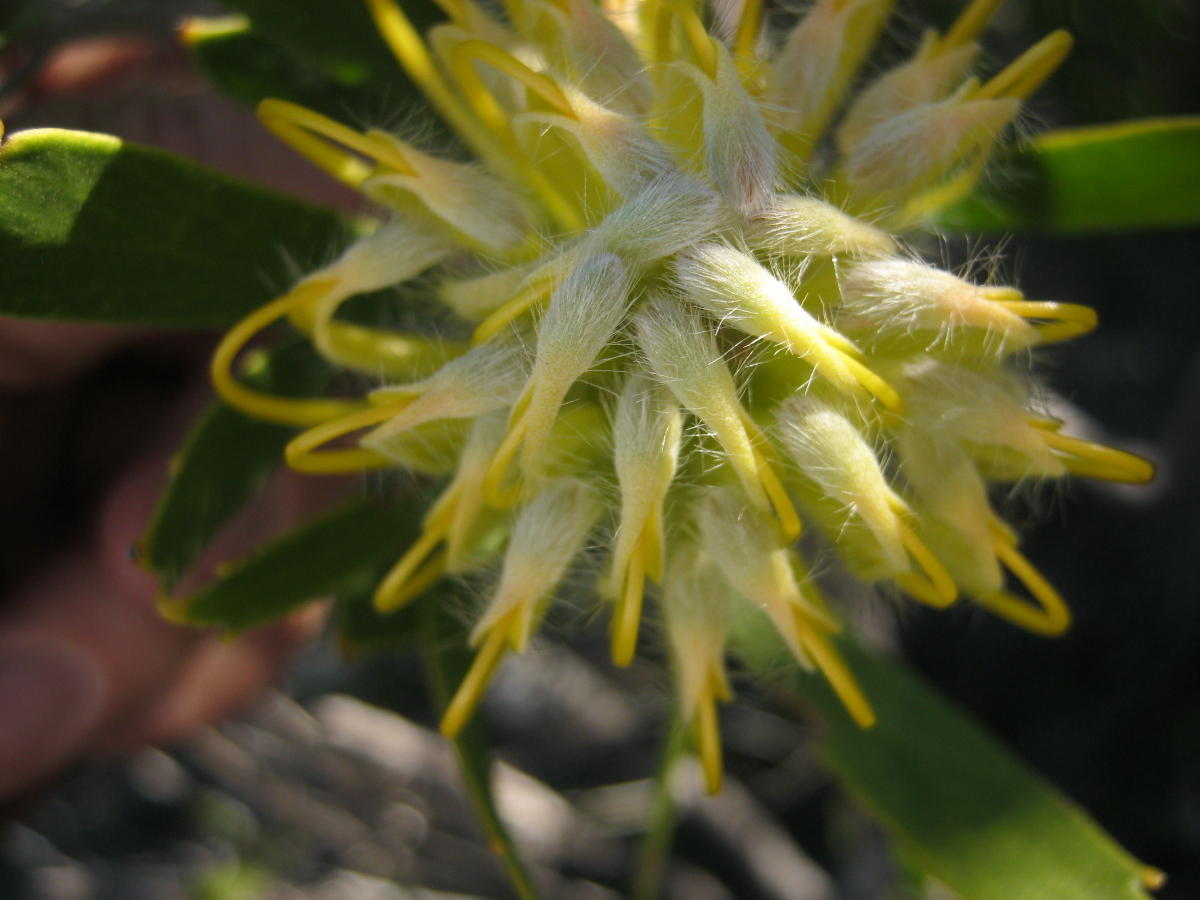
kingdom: Plantae
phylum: Tracheophyta
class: Magnoliopsida
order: Proteales
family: Proteaceae
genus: Leucospermum
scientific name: Leucospermum cuneiforme
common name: Common pincushion
